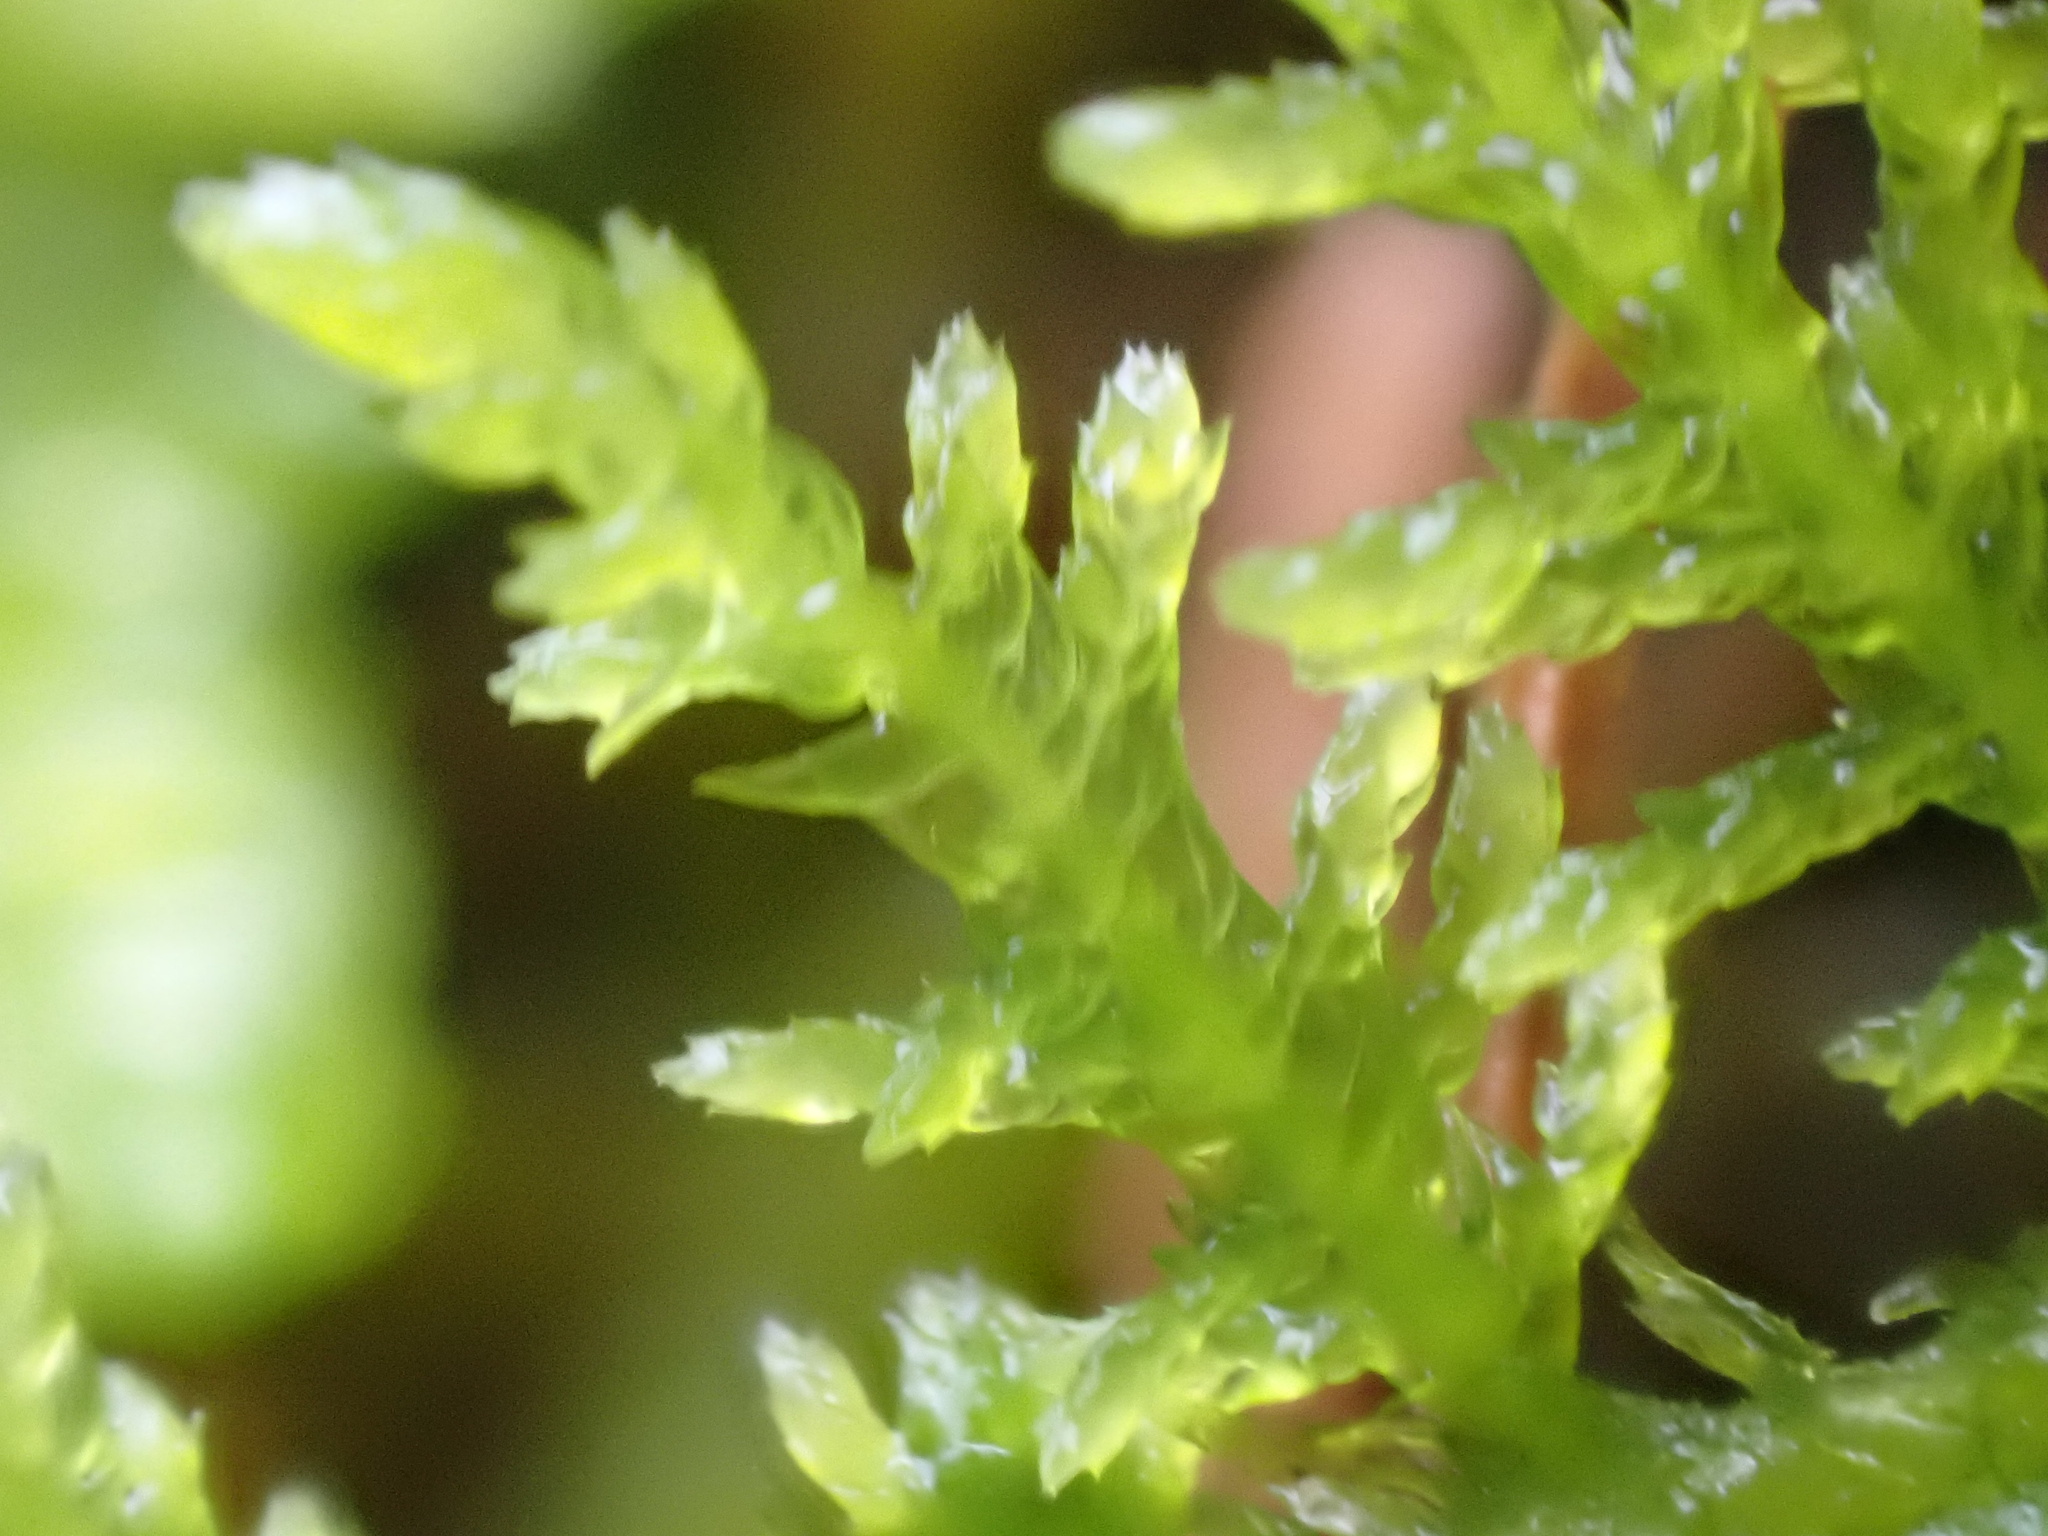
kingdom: Plantae
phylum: Bryophyta
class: Bryopsida
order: Hypnales
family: Thuidiaceae
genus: Thuidium
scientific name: Thuidium tamariscinum
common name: Common tamarisk-moss
